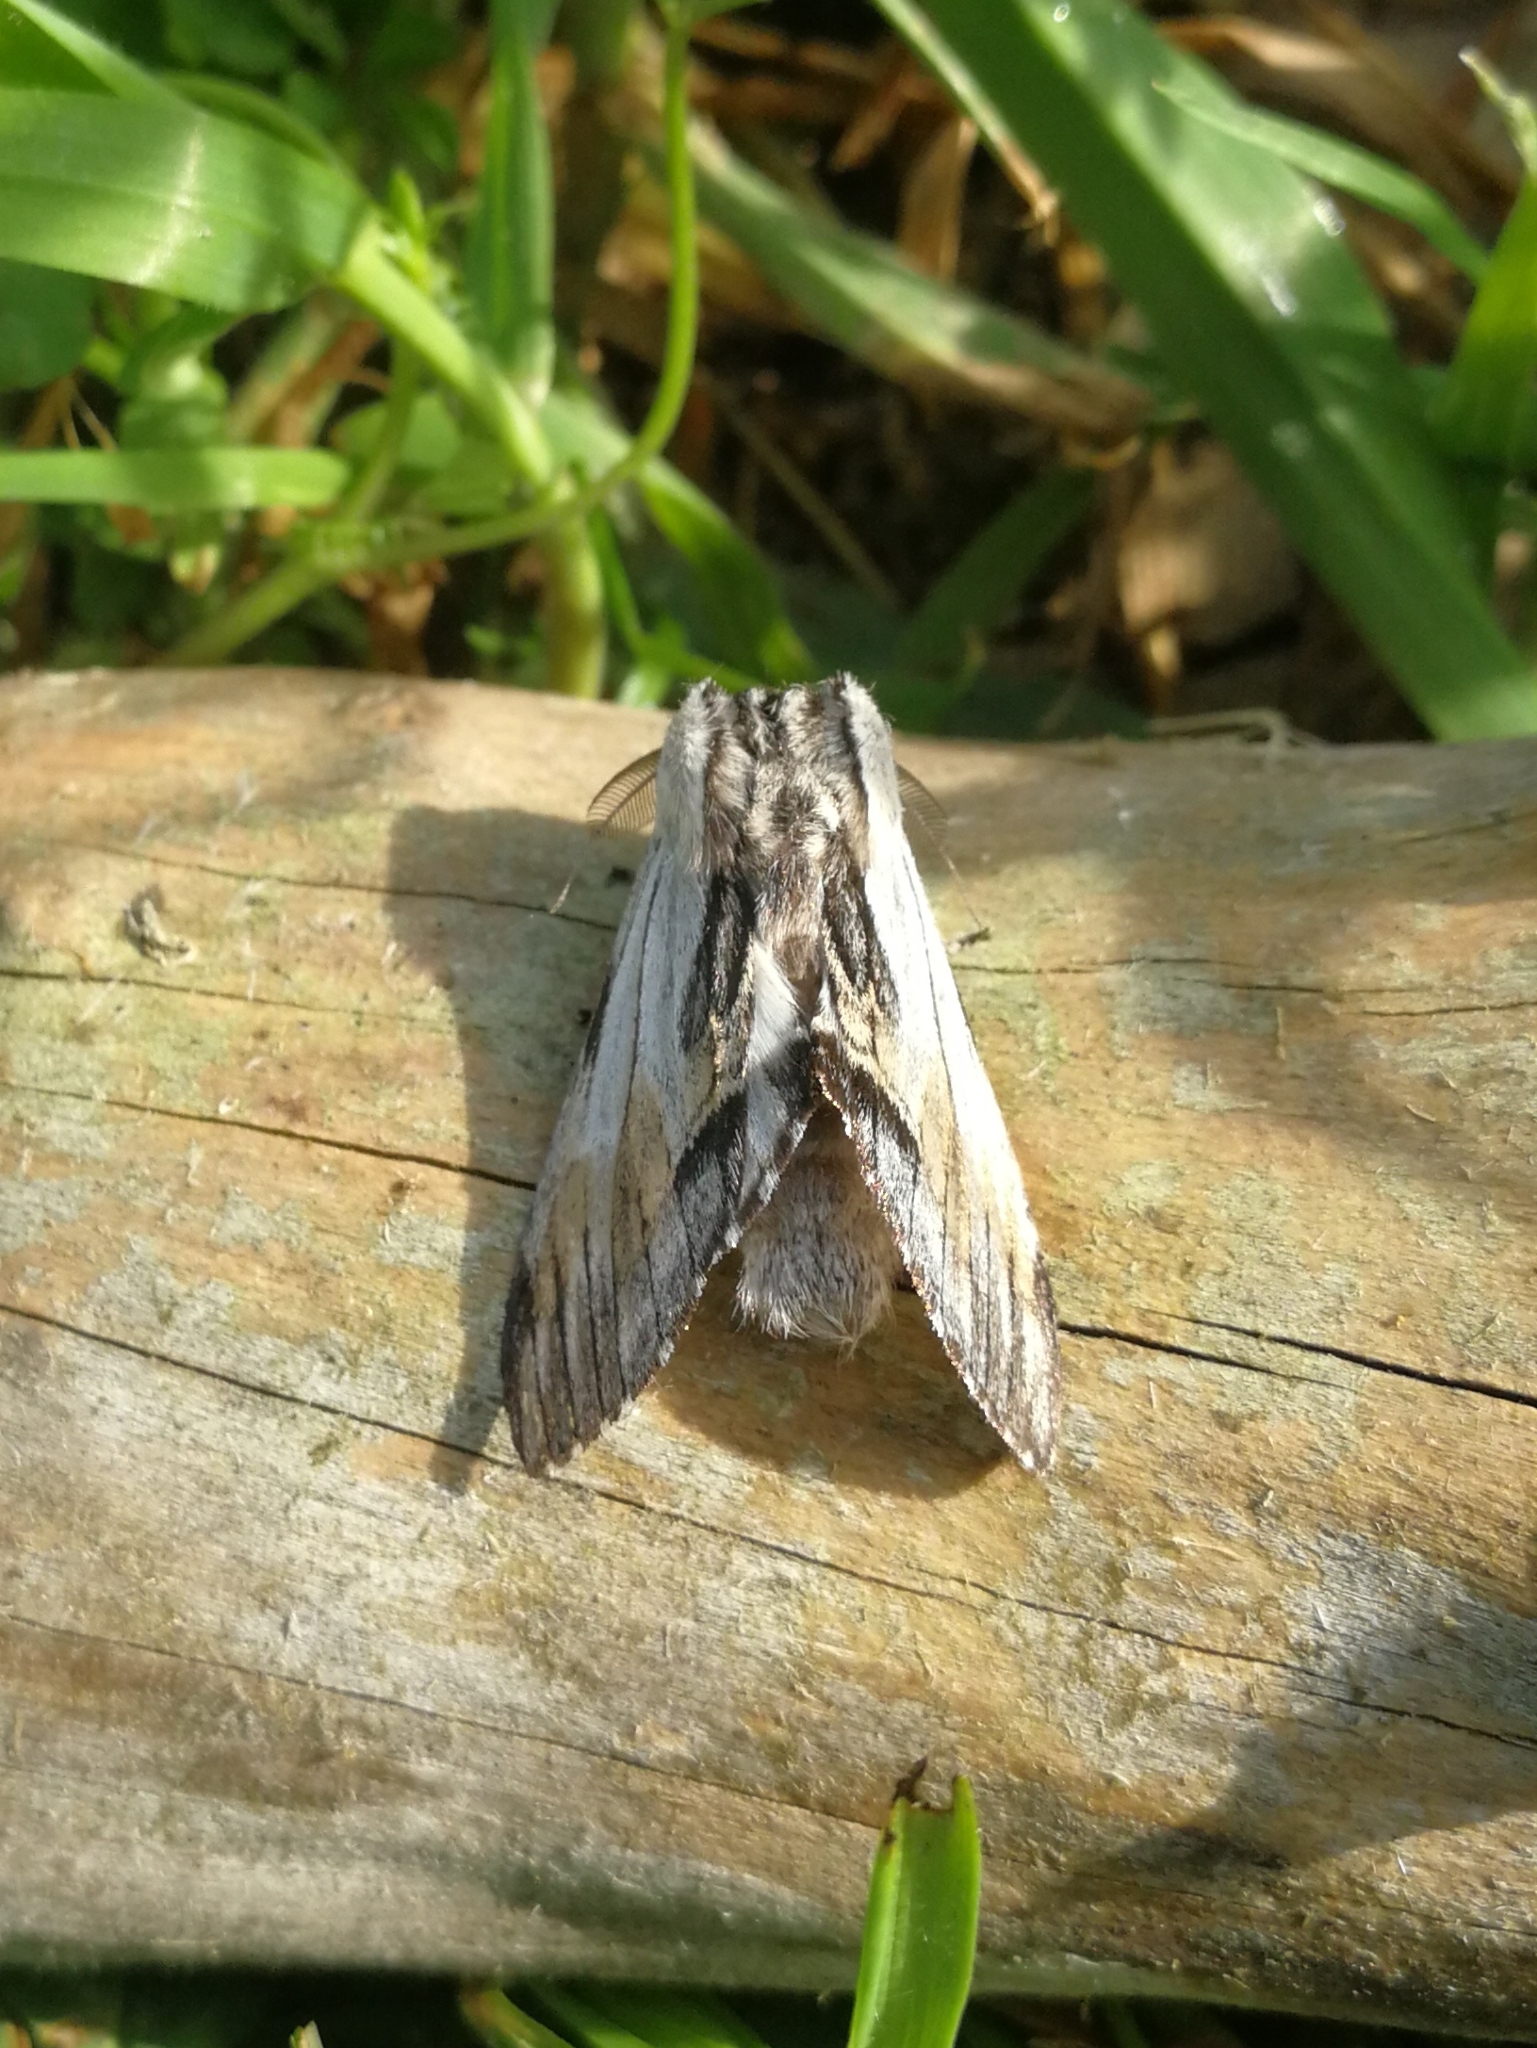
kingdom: Animalia
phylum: Arthropoda
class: Insecta
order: Lepidoptera
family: Notodontidae
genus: Harpyia
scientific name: Harpyia milhauseri
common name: Tawny prominent
